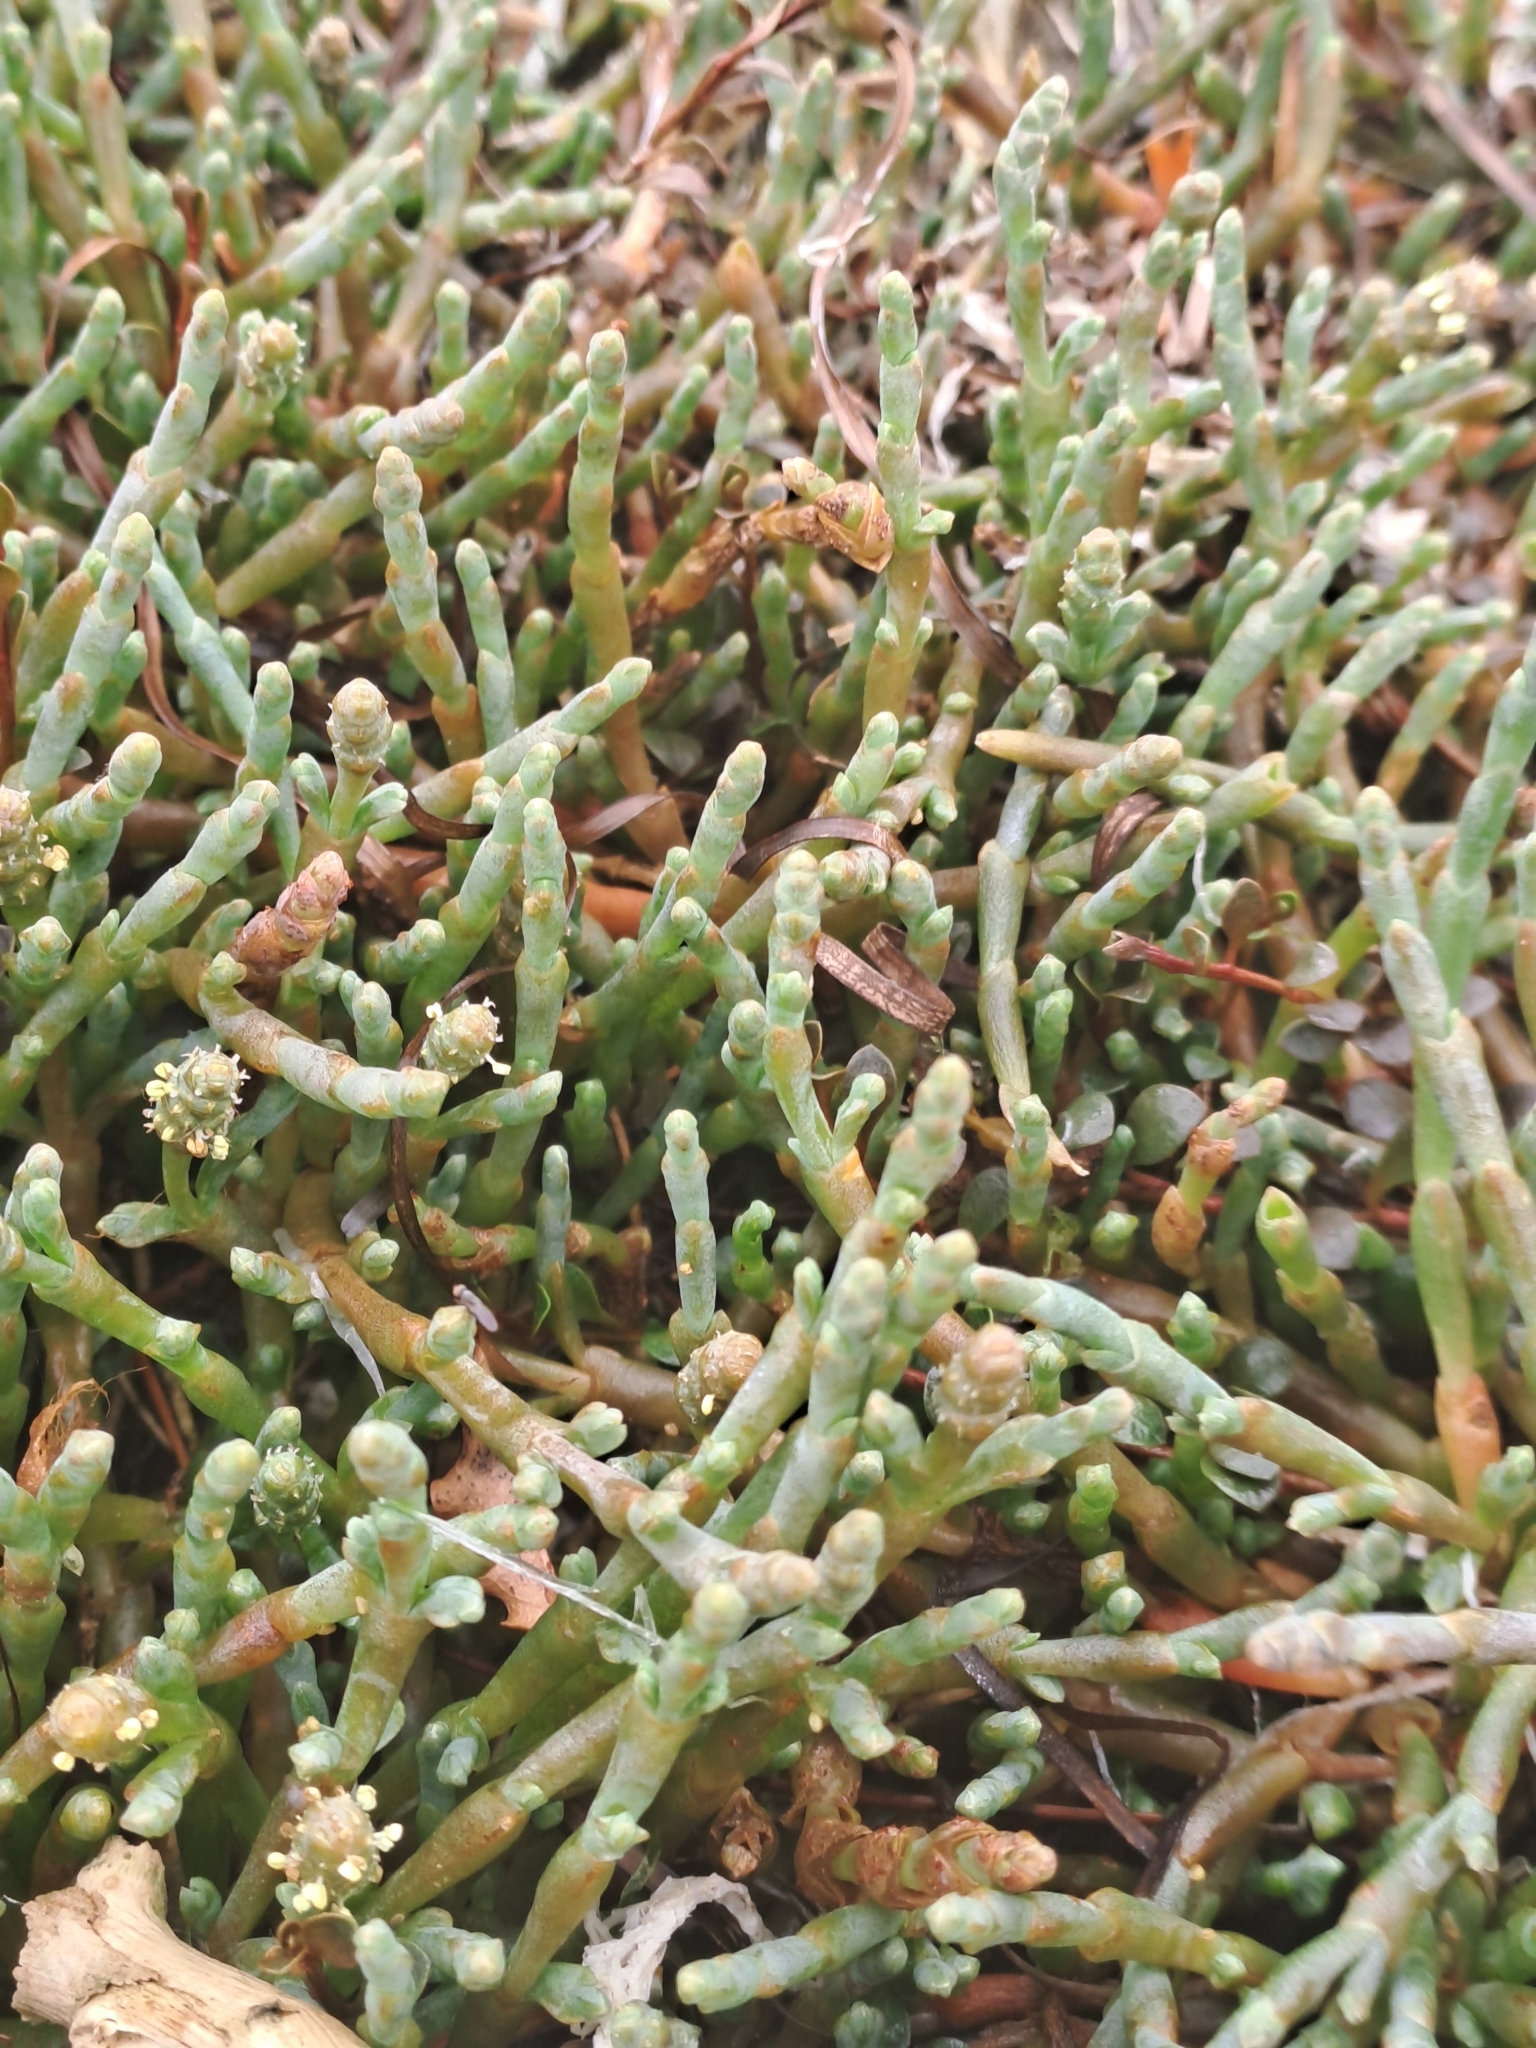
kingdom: Plantae
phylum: Tracheophyta
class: Magnoliopsida
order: Caryophyllales
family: Amaranthaceae
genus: Salicornia
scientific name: Salicornia quinqueflora
